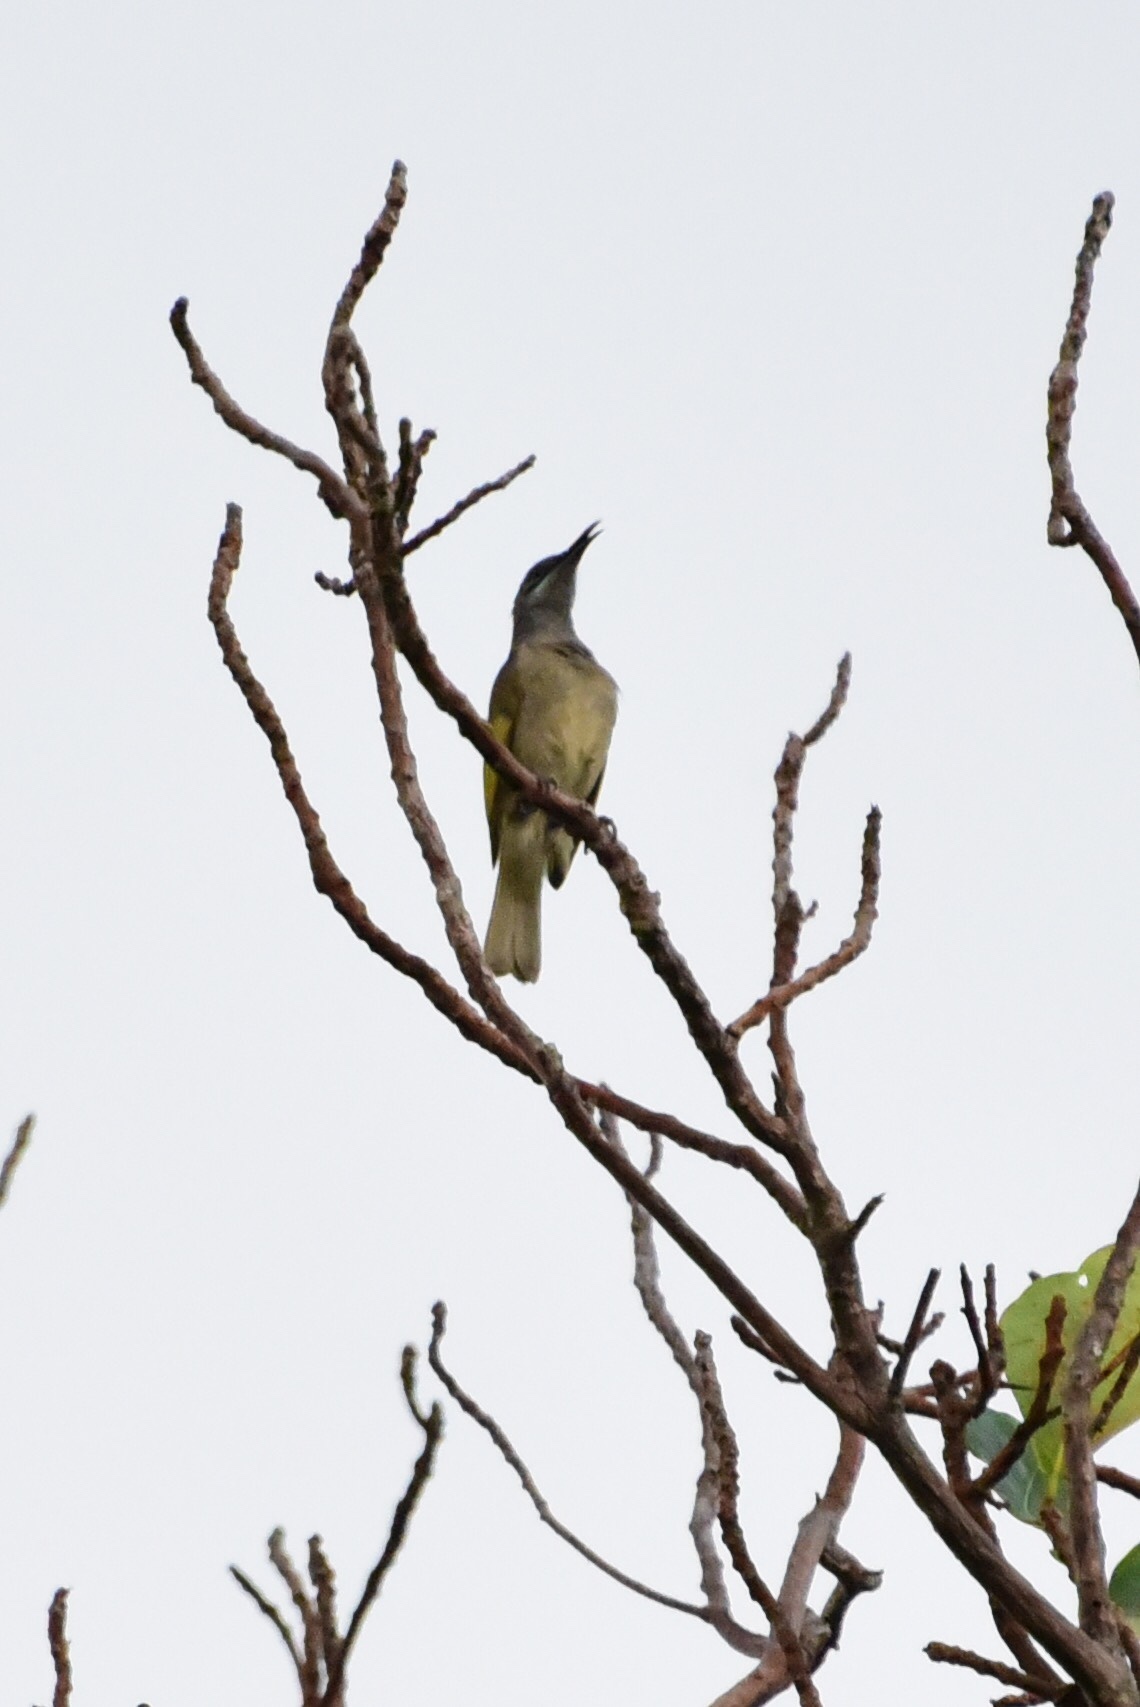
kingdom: Animalia
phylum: Chordata
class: Aves
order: Passeriformes
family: Meliphagidae
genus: Lichmera
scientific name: Lichmera incana
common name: Grey-eared honeyeater
